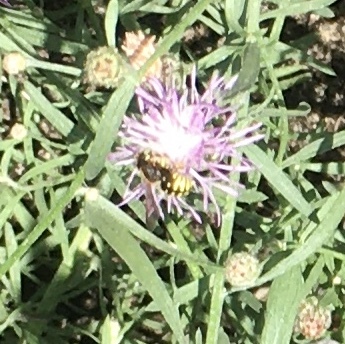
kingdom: Animalia
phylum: Arthropoda
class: Insecta
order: Hymenoptera
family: Megachilidae
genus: Anthidium
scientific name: Anthidium oblongatum
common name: Oblong wool carder bee
